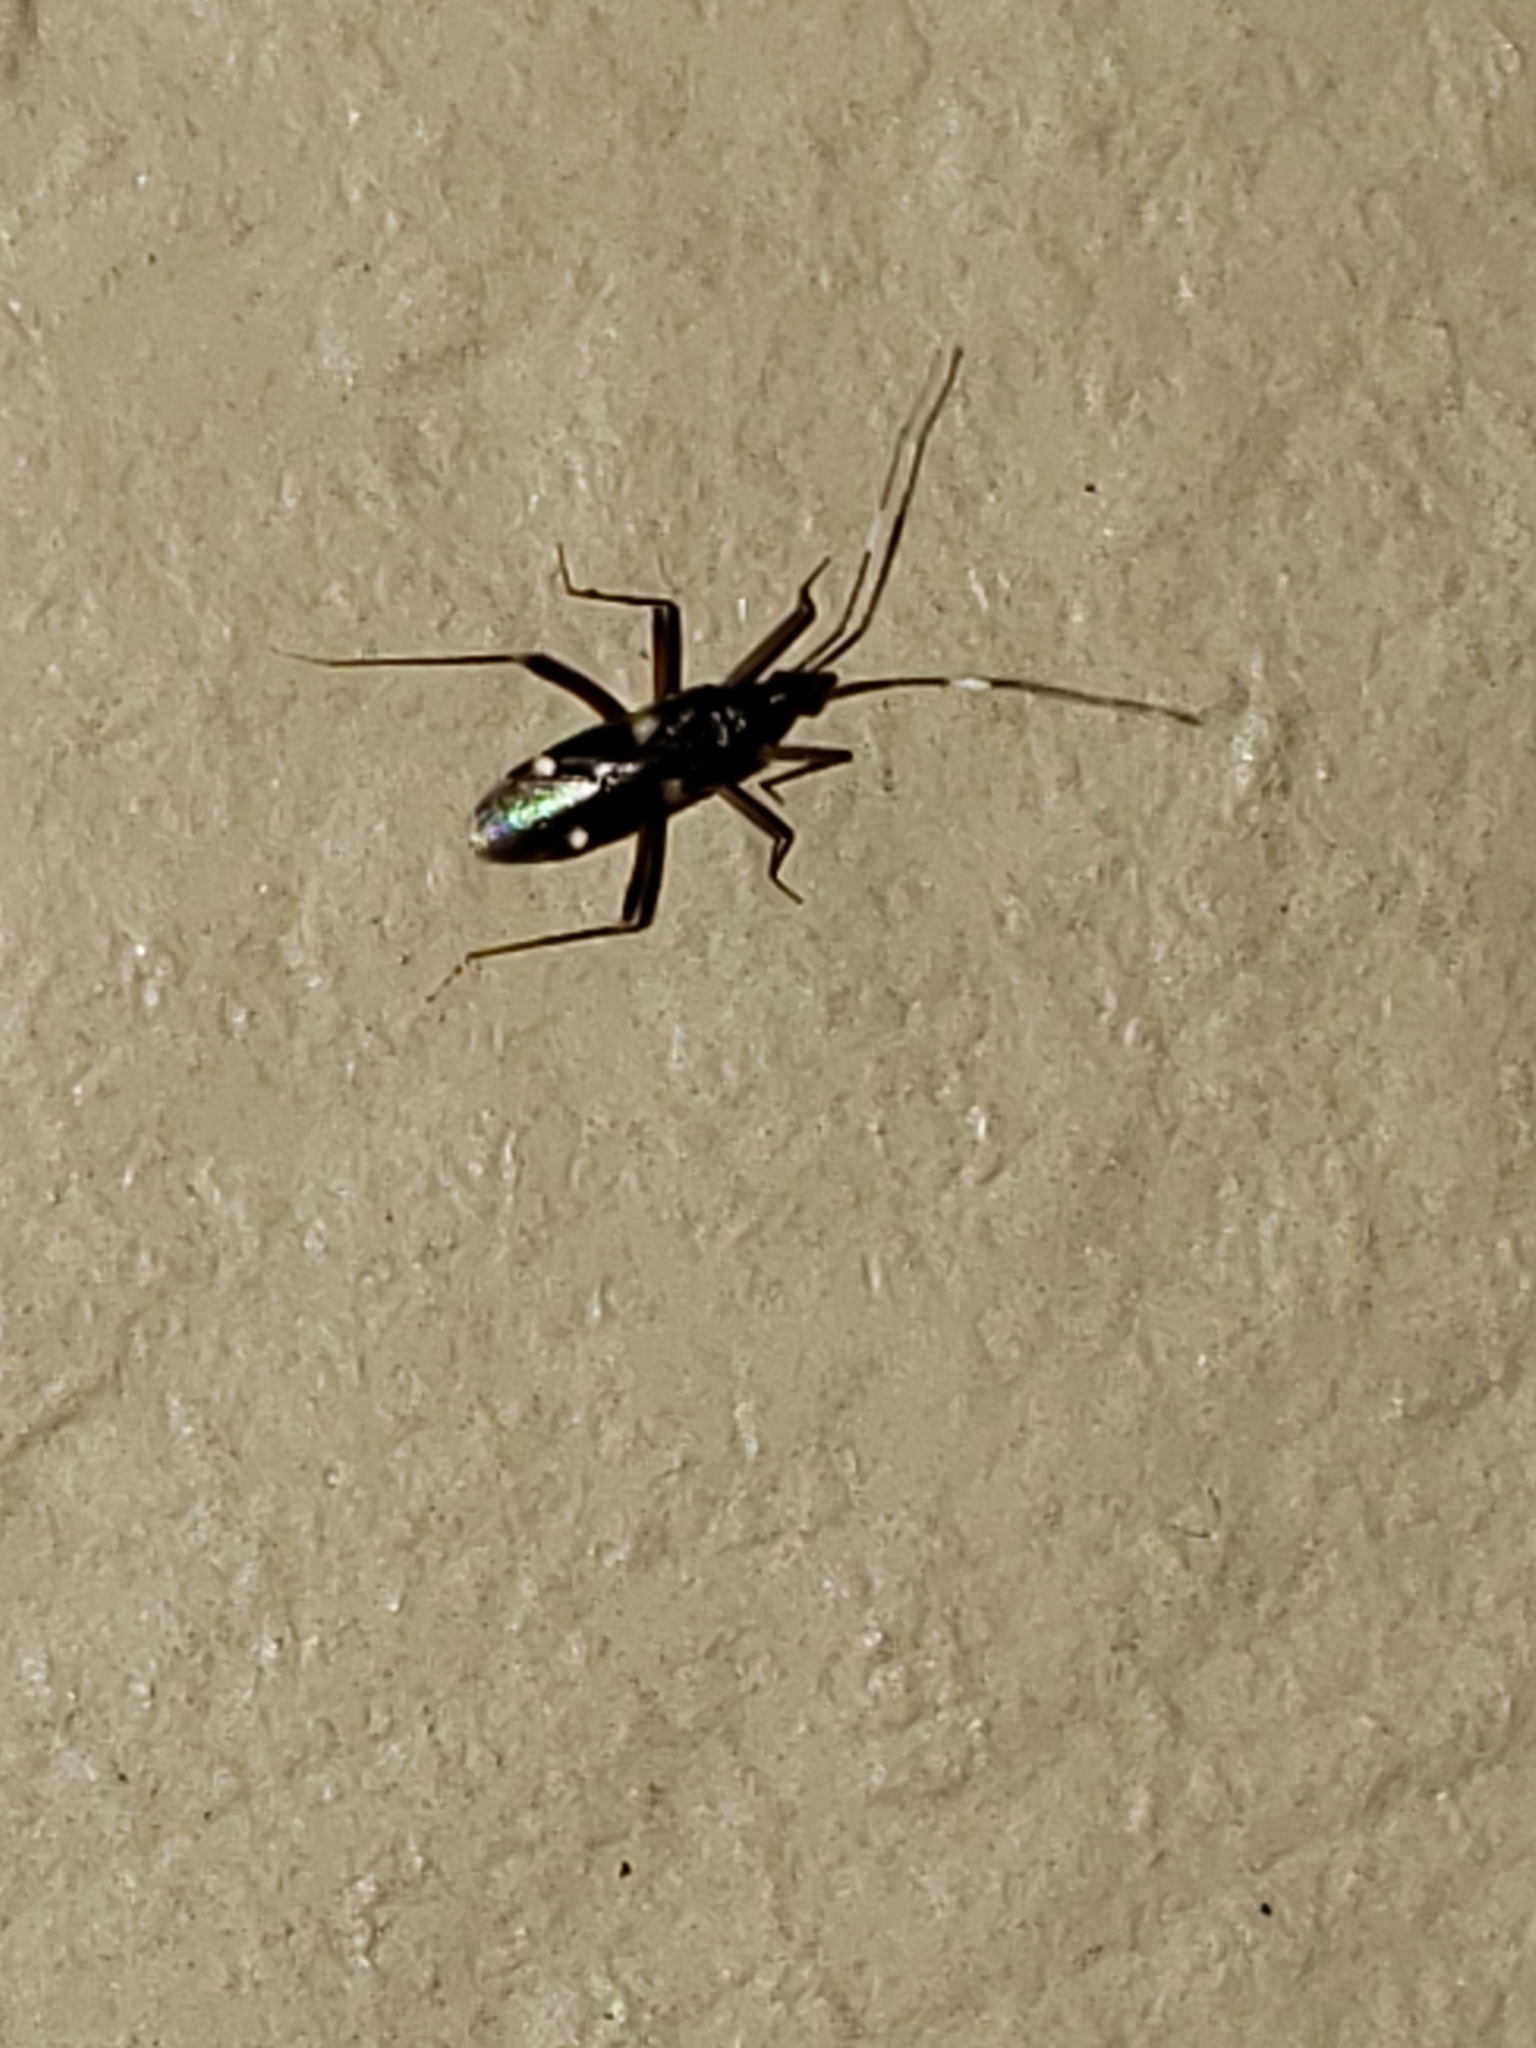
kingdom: Animalia
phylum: Arthropoda
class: Insecta
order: Hemiptera
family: Miridae
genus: Fulvius
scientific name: Fulvius imbecilis
